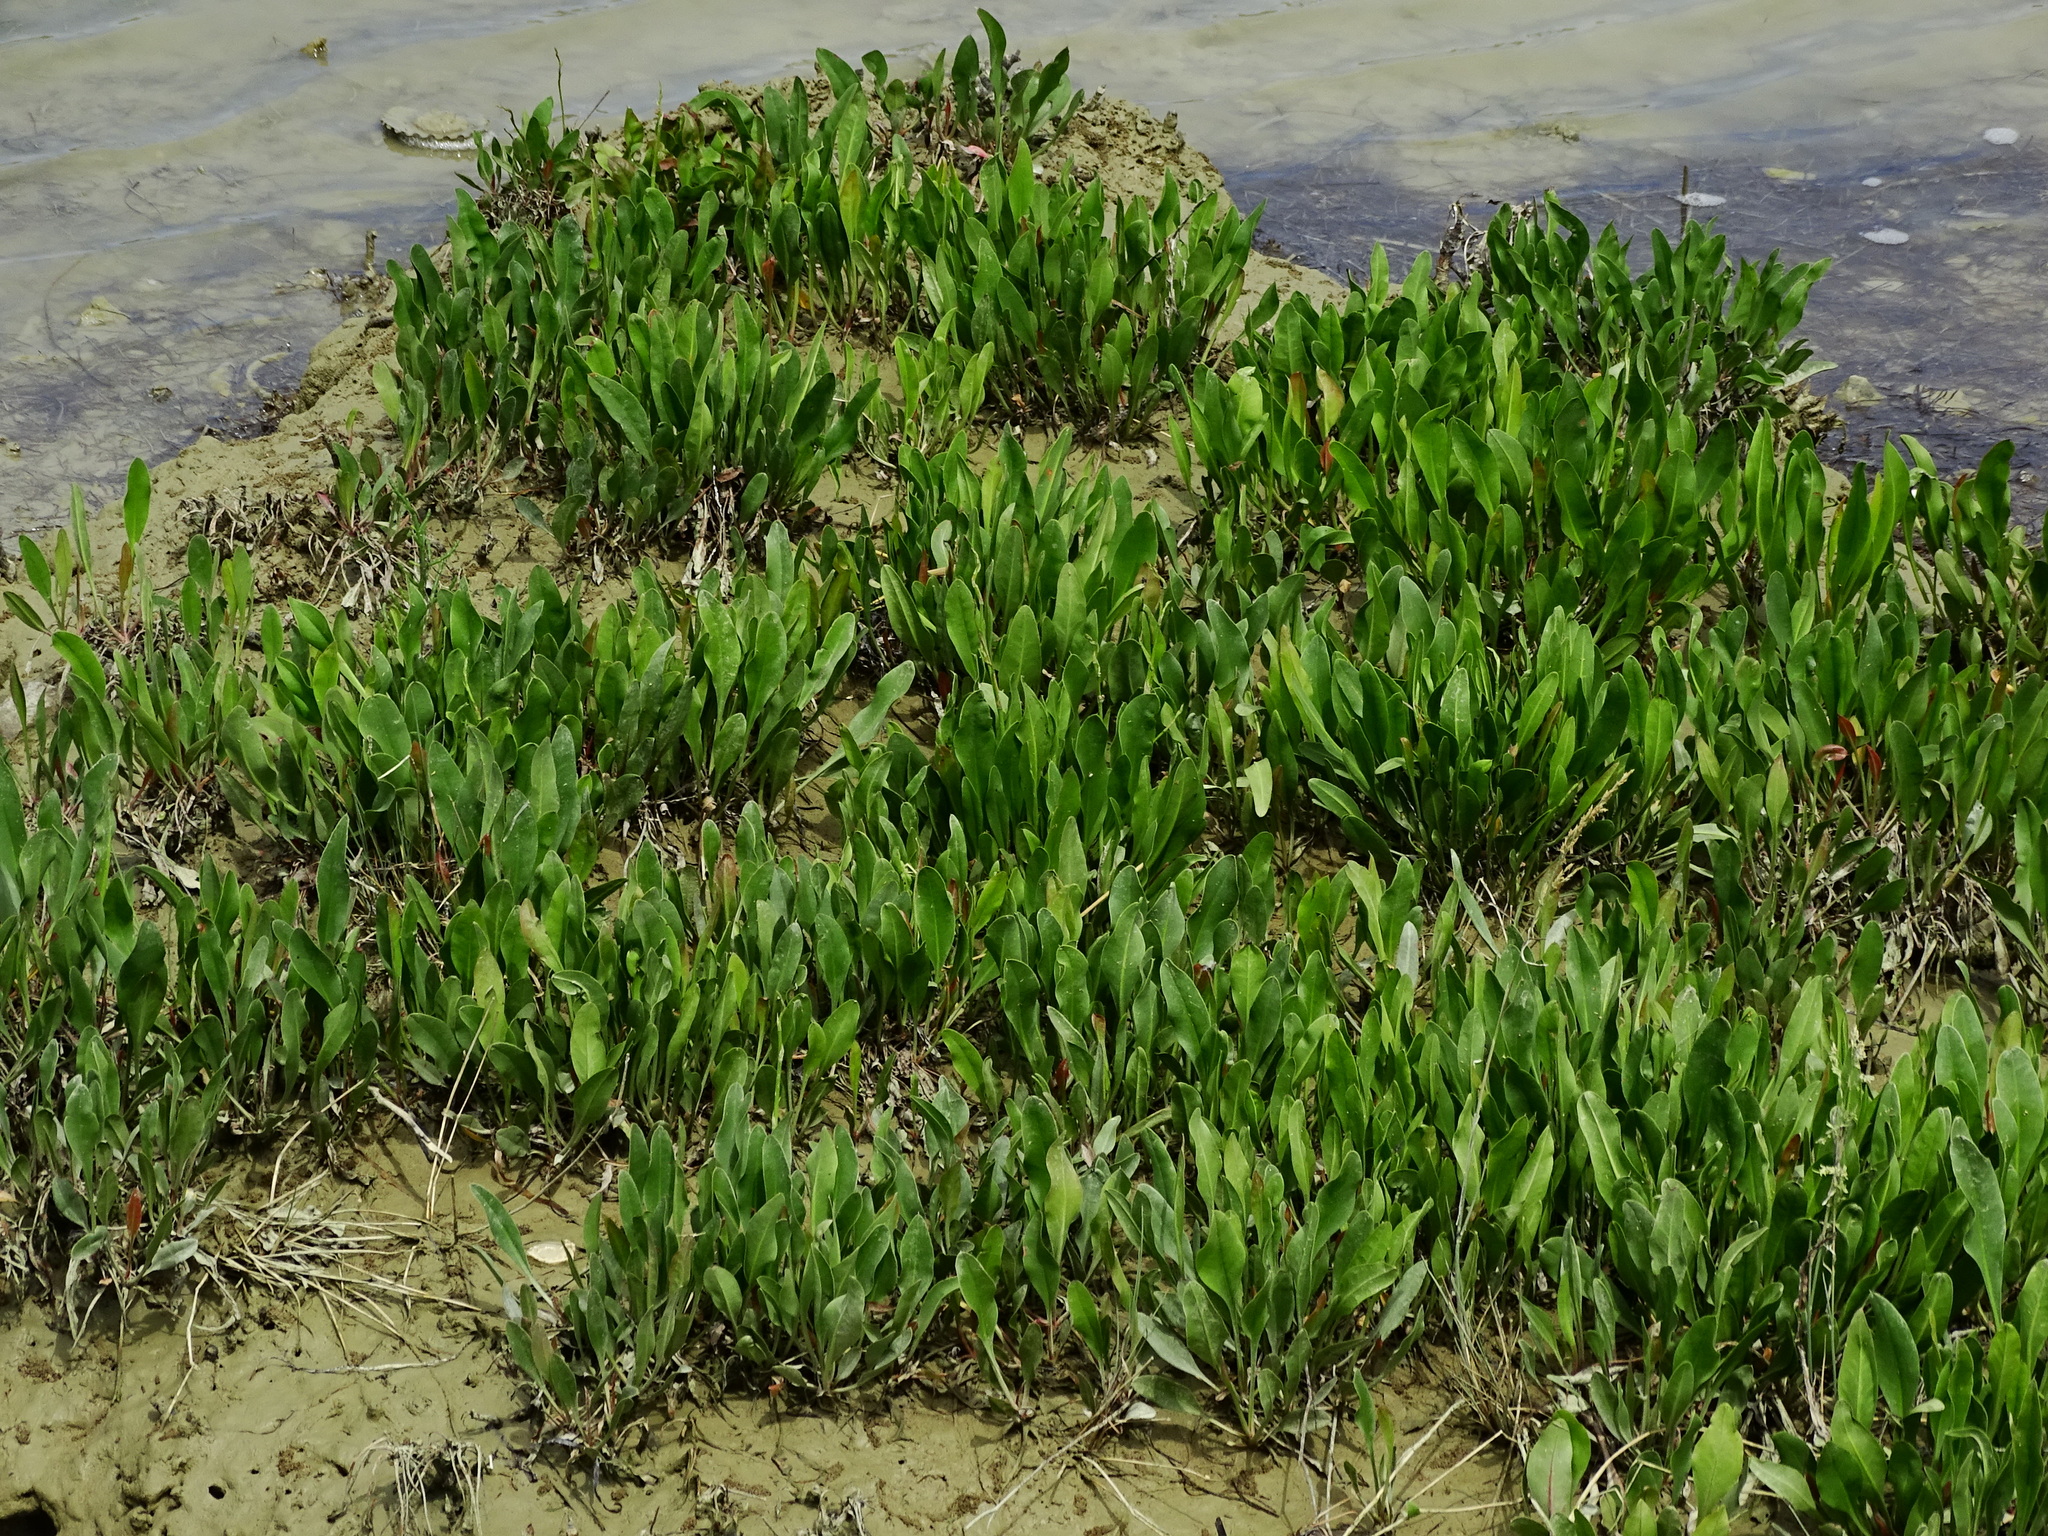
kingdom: Plantae
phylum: Tracheophyta
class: Magnoliopsida
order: Caryophyllales
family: Plumbaginaceae
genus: Limonium
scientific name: Limonium narbonense
